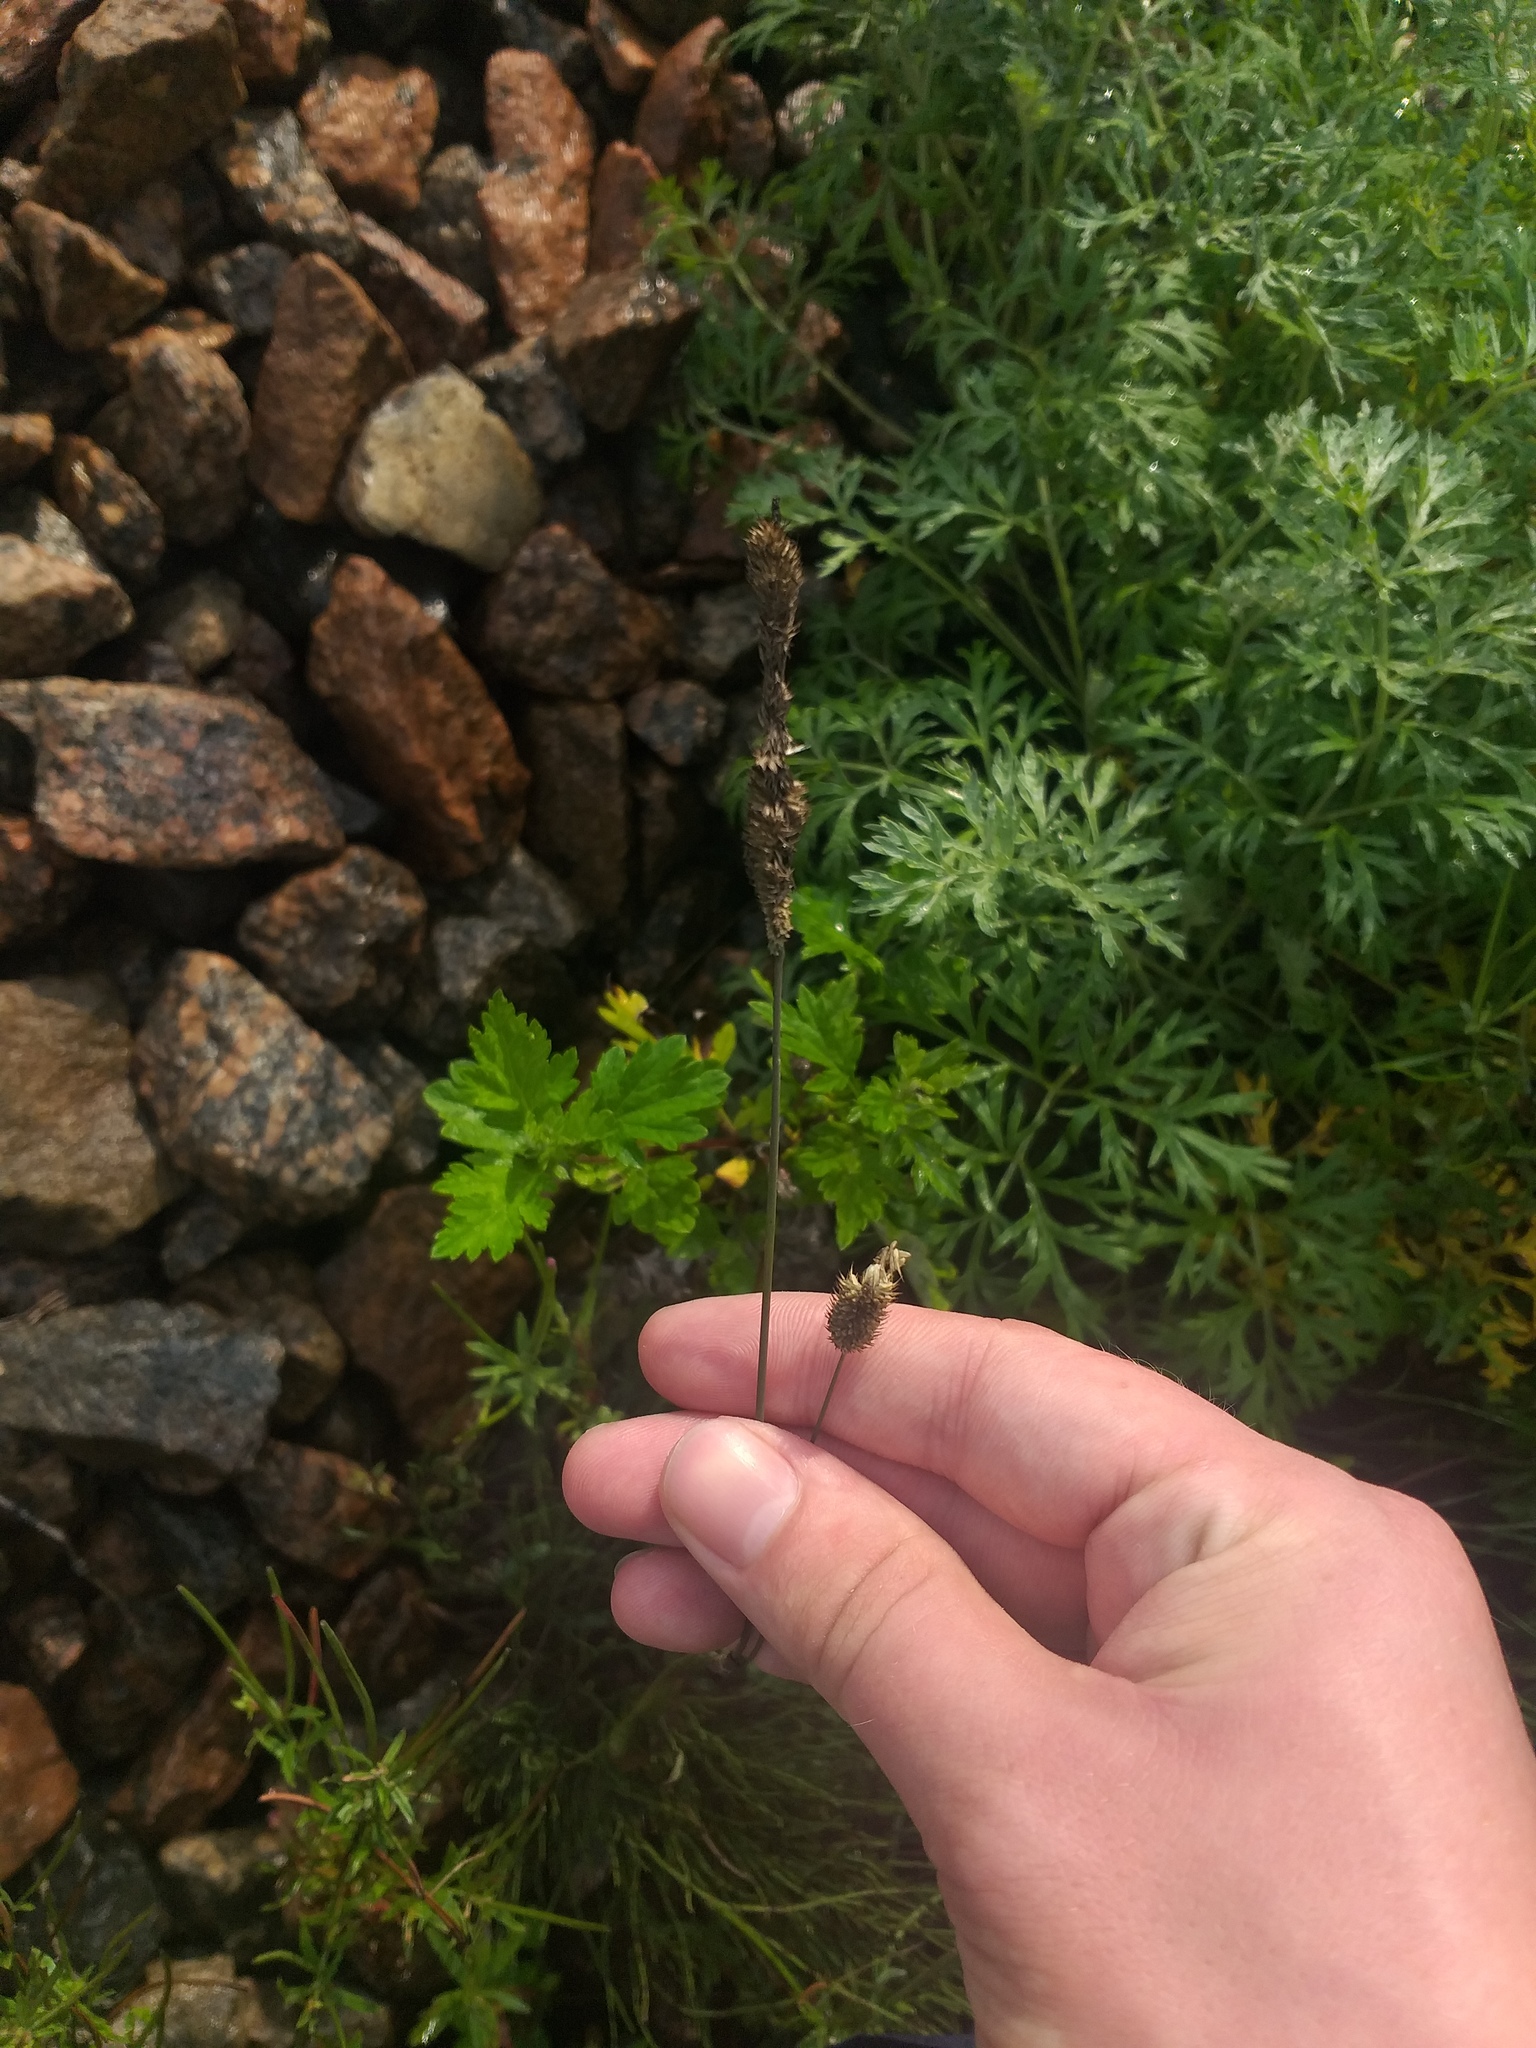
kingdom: Plantae
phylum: Tracheophyta
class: Liliopsida
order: Poales
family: Poaceae
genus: Phleum
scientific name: Phleum pratense
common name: Timothy grass
